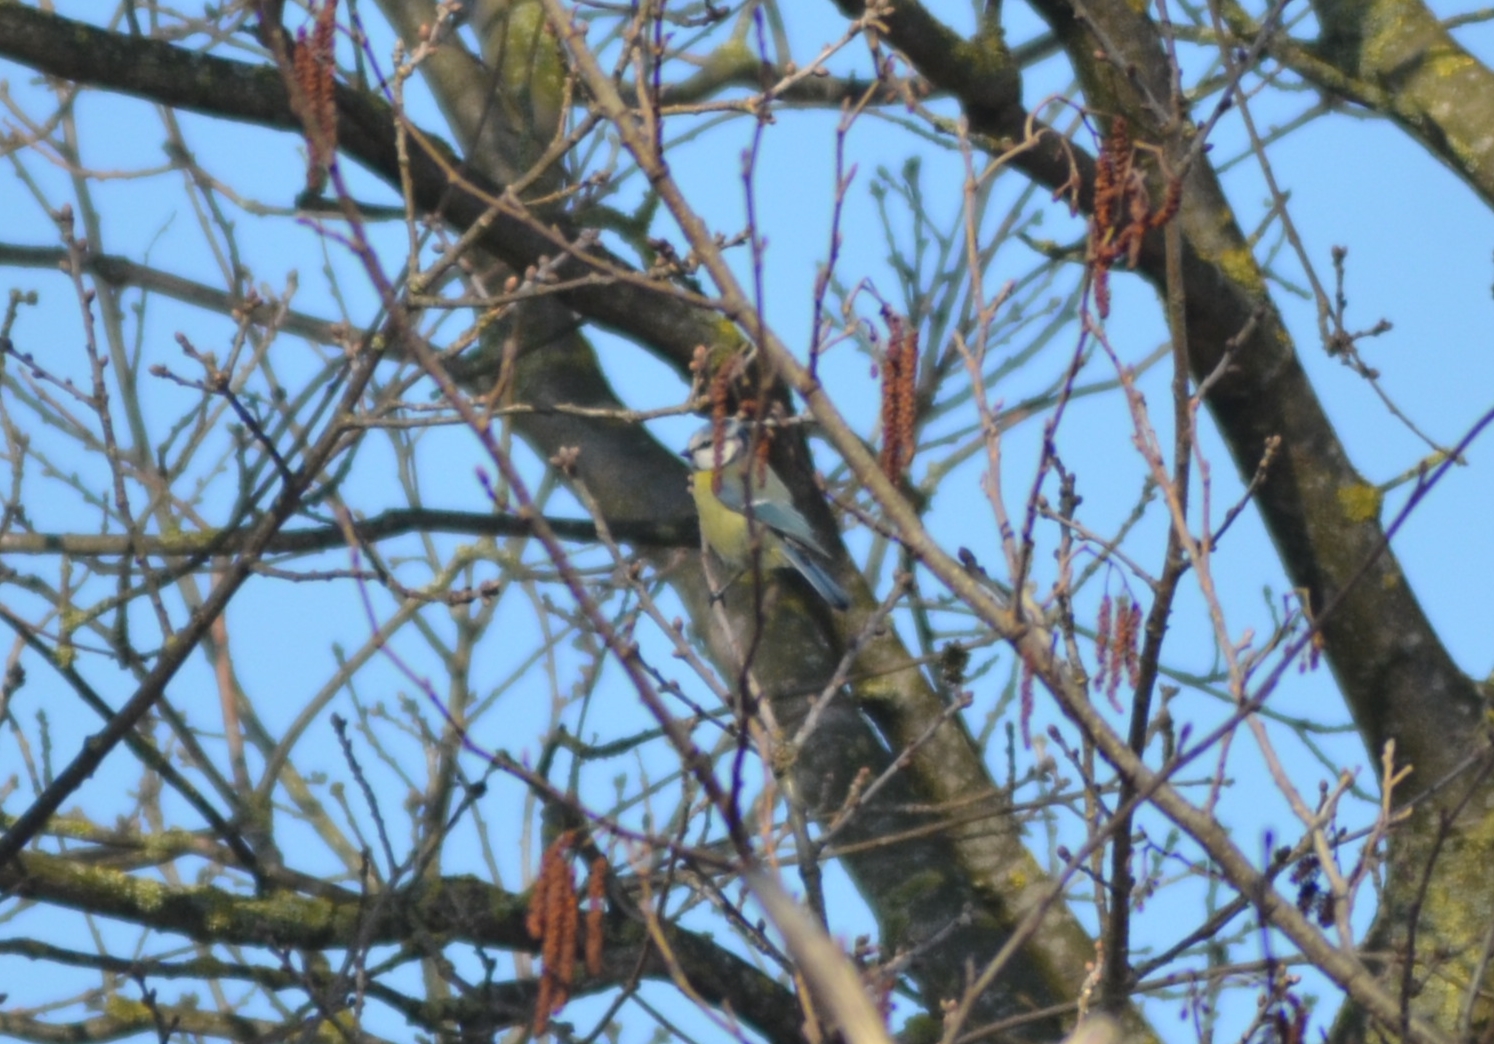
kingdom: Animalia
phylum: Chordata
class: Aves
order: Passeriformes
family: Paridae
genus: Cyanistes
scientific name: Cyanistes caeruleus
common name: Eurasian blue tit
